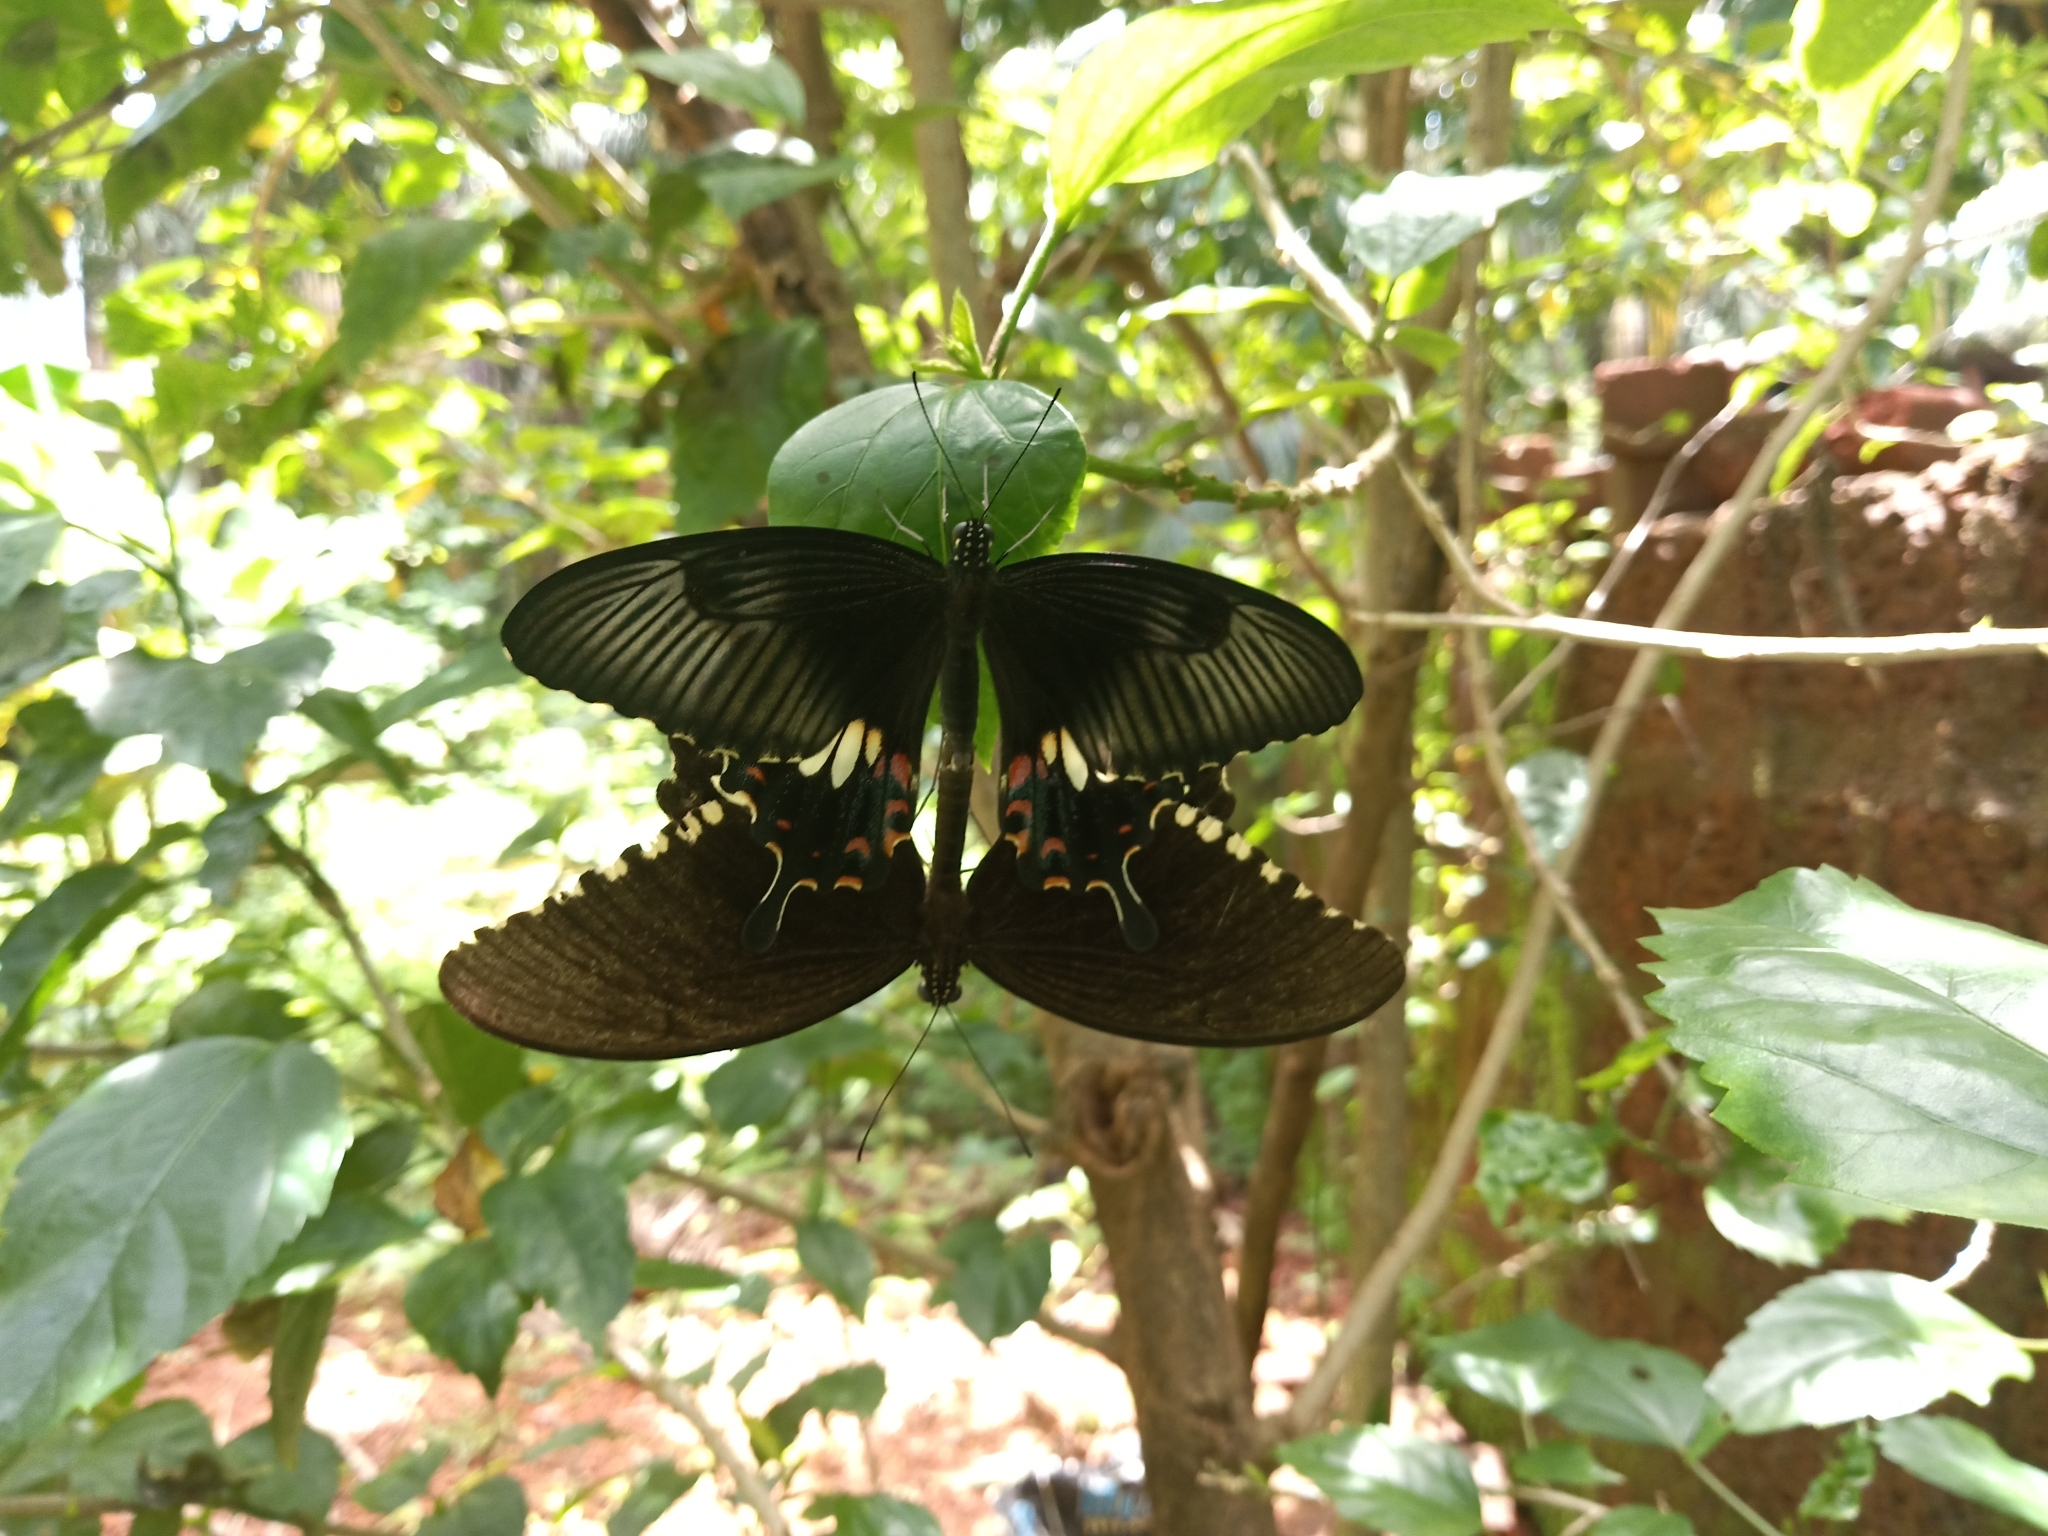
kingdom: Animalia
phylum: Arthropoda
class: Insecta
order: Lepidoptera
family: Papilionidae
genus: Papilio
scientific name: Papilio polytes
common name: Common mormon
